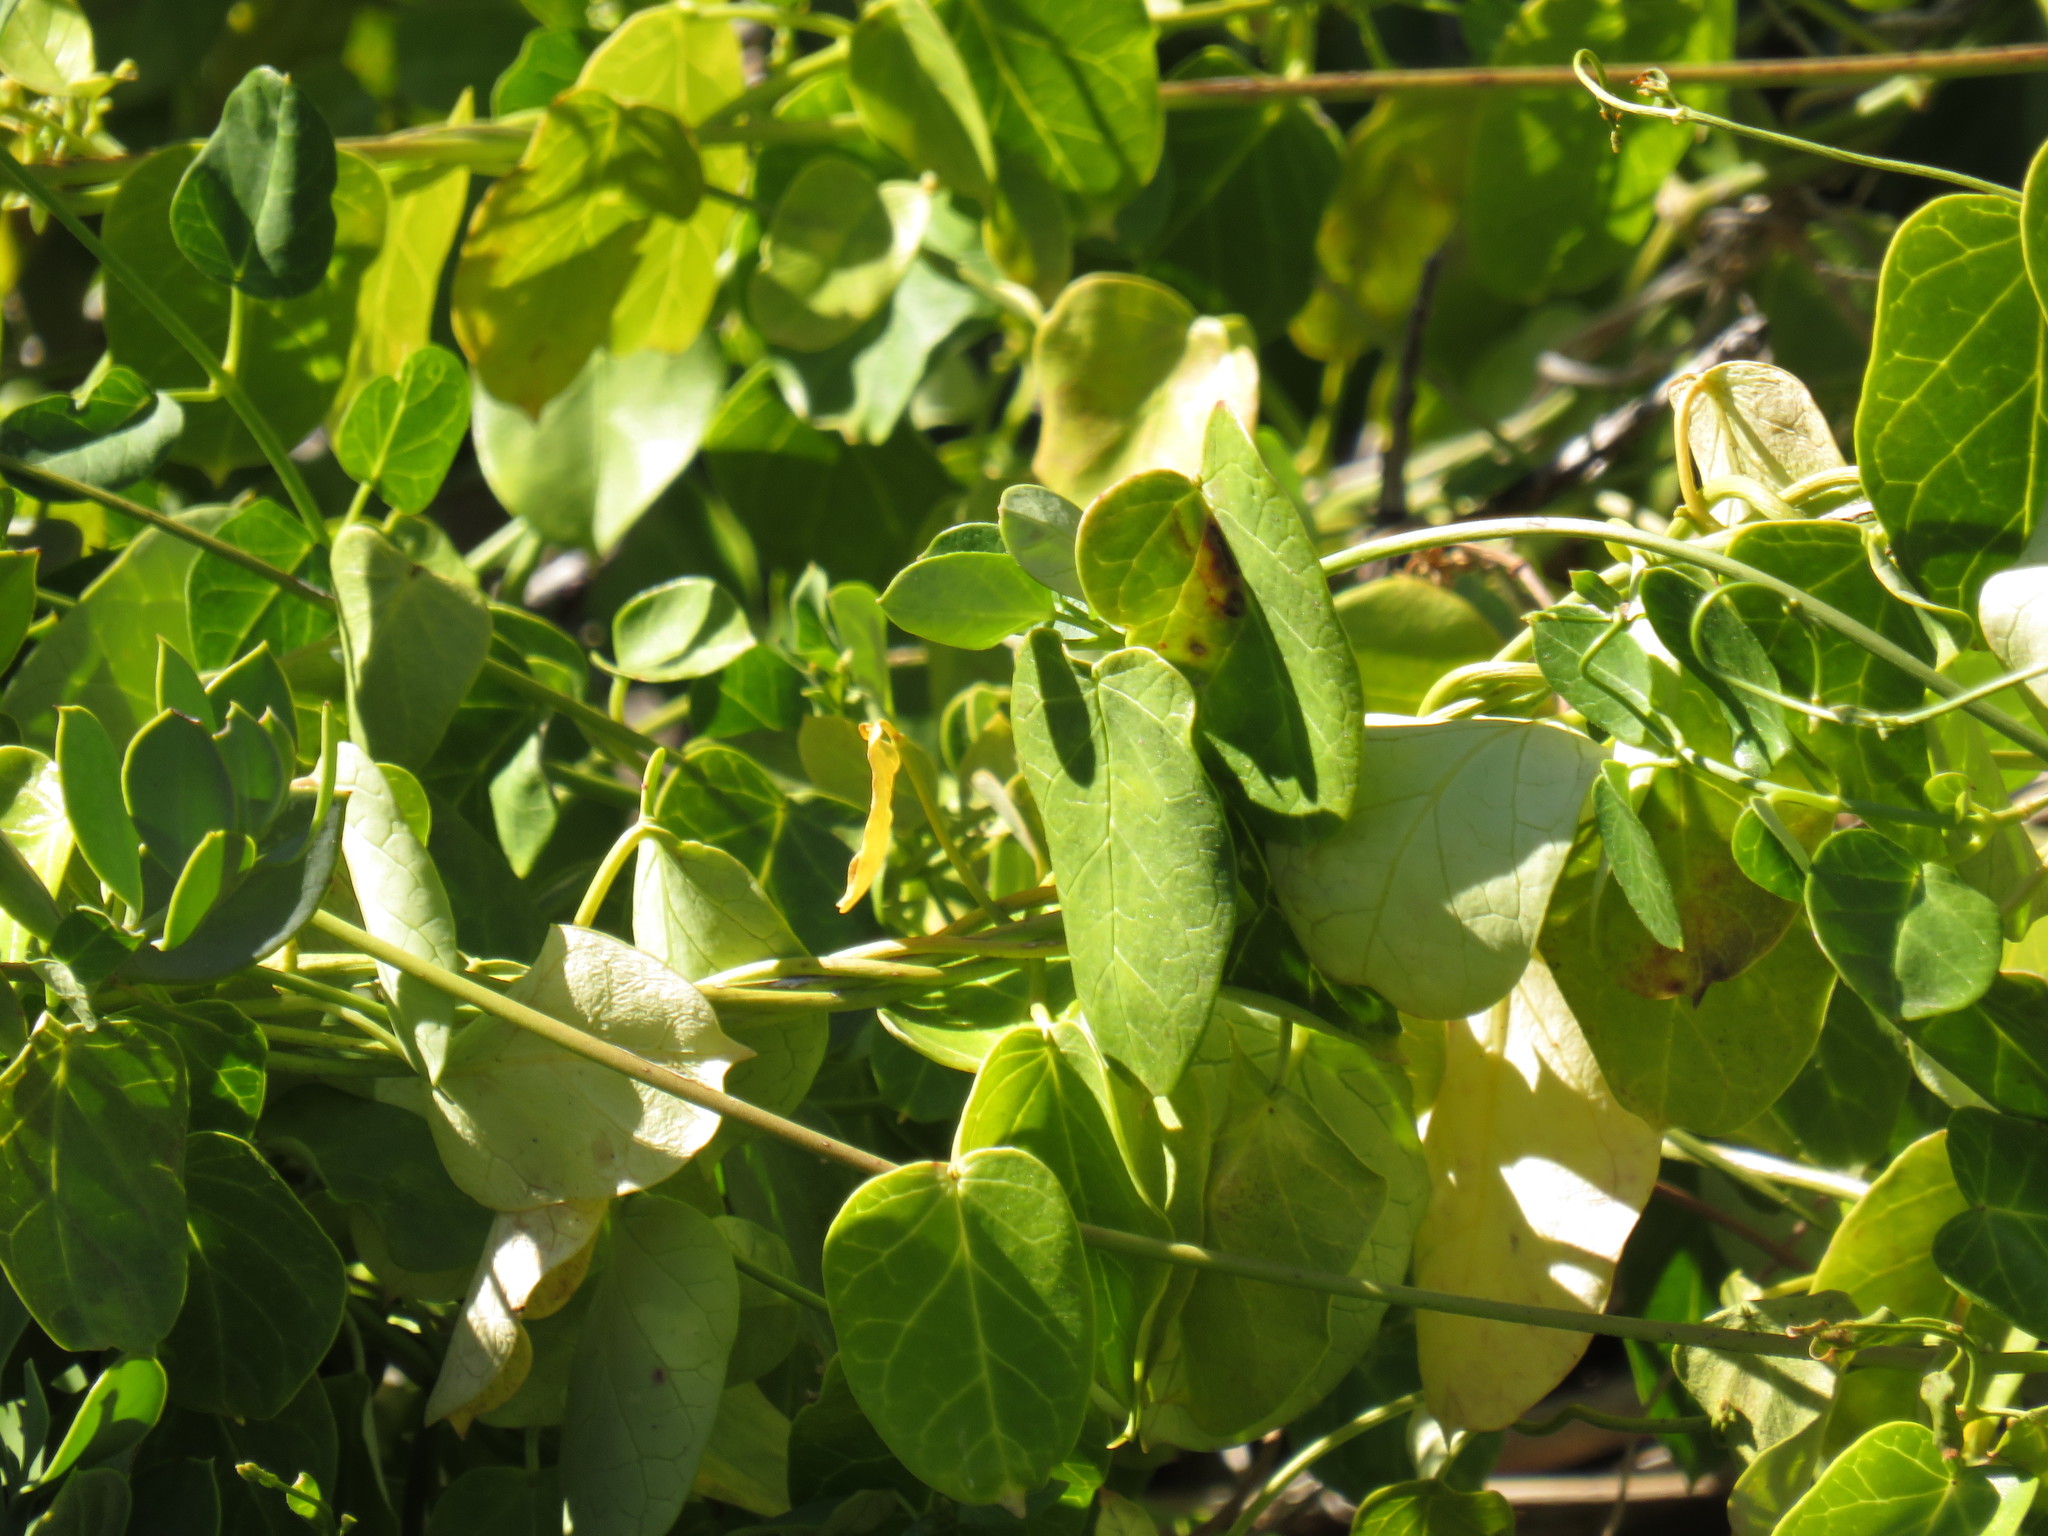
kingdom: Plantae
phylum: Tracheophyta
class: Magnoliopsida
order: Gentianales
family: Apocynaceae
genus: Cynanchum
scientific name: Cynanchum obtusifolium
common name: Monkey-rope
